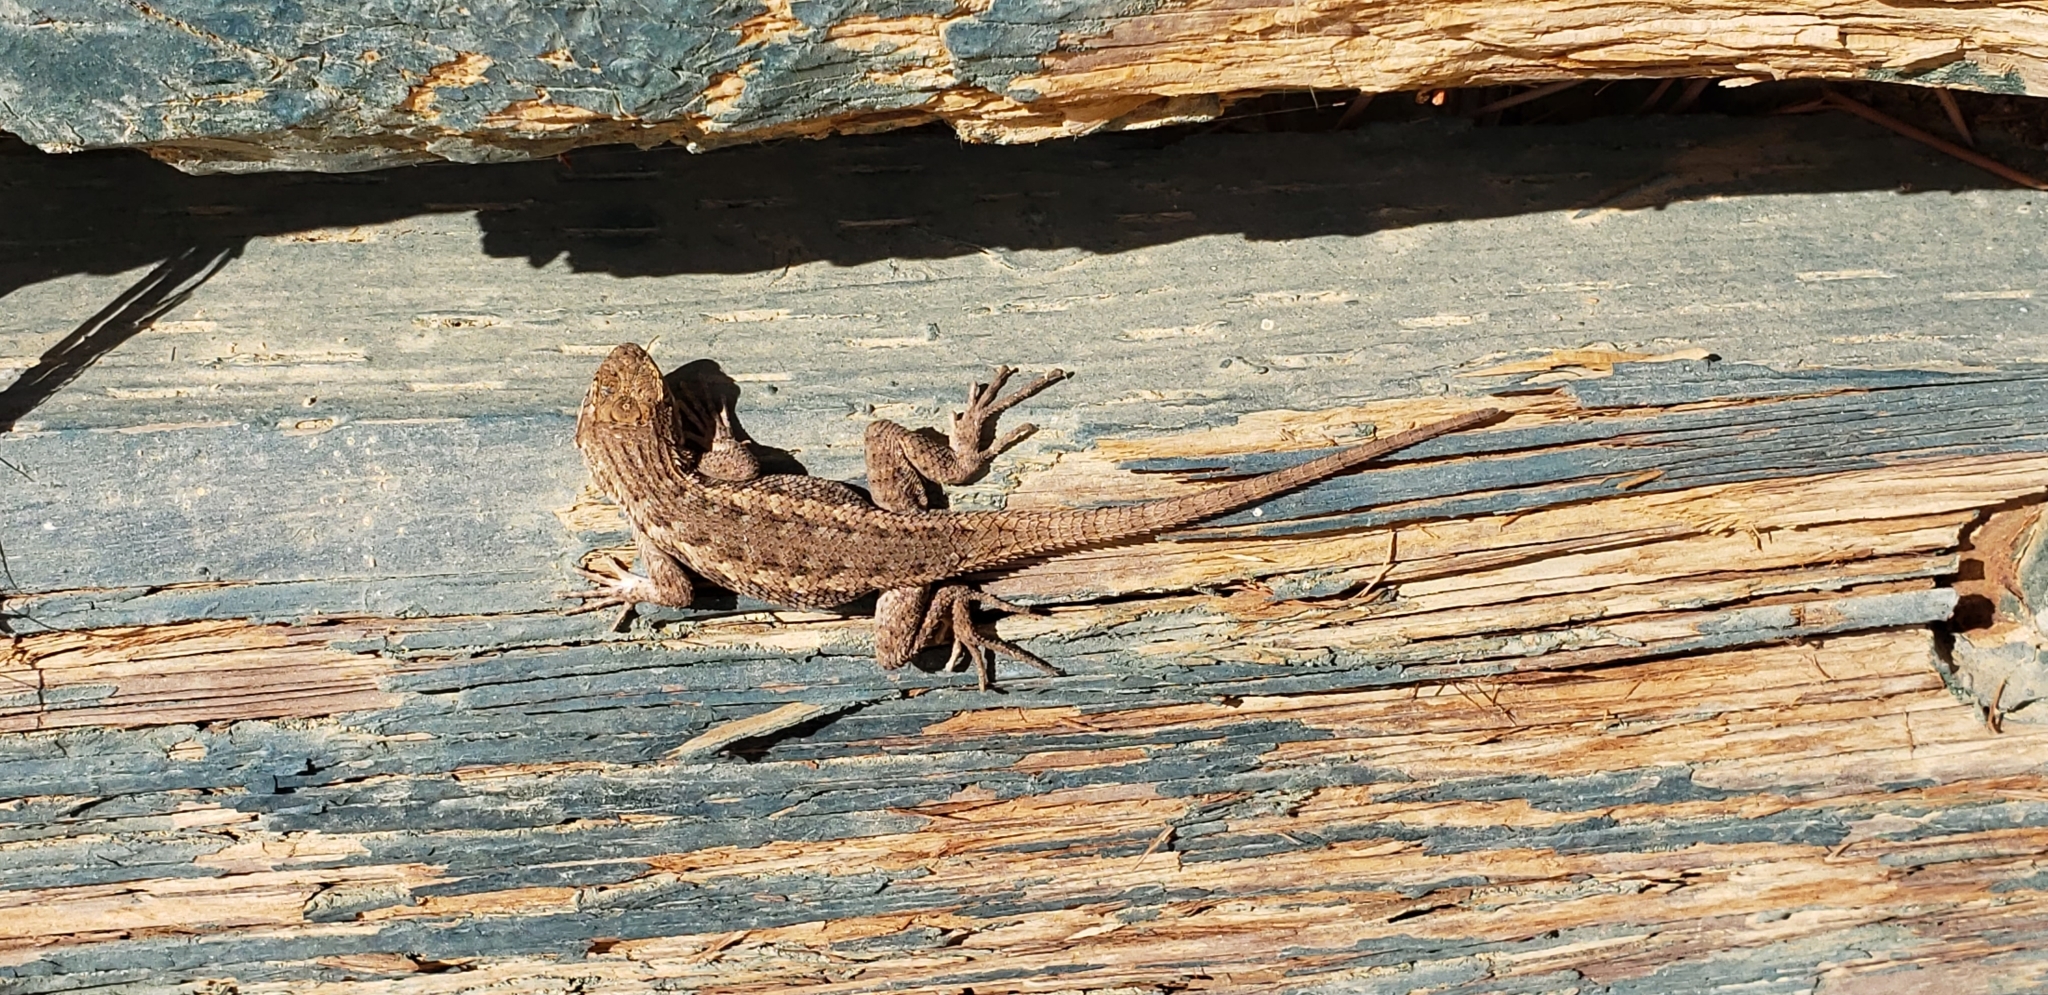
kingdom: Animalia
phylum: Chordata
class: Squamata
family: Phrynosomatidae
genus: Sceloporus
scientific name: Sceloporus occidentalis
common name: Western fence lizard
